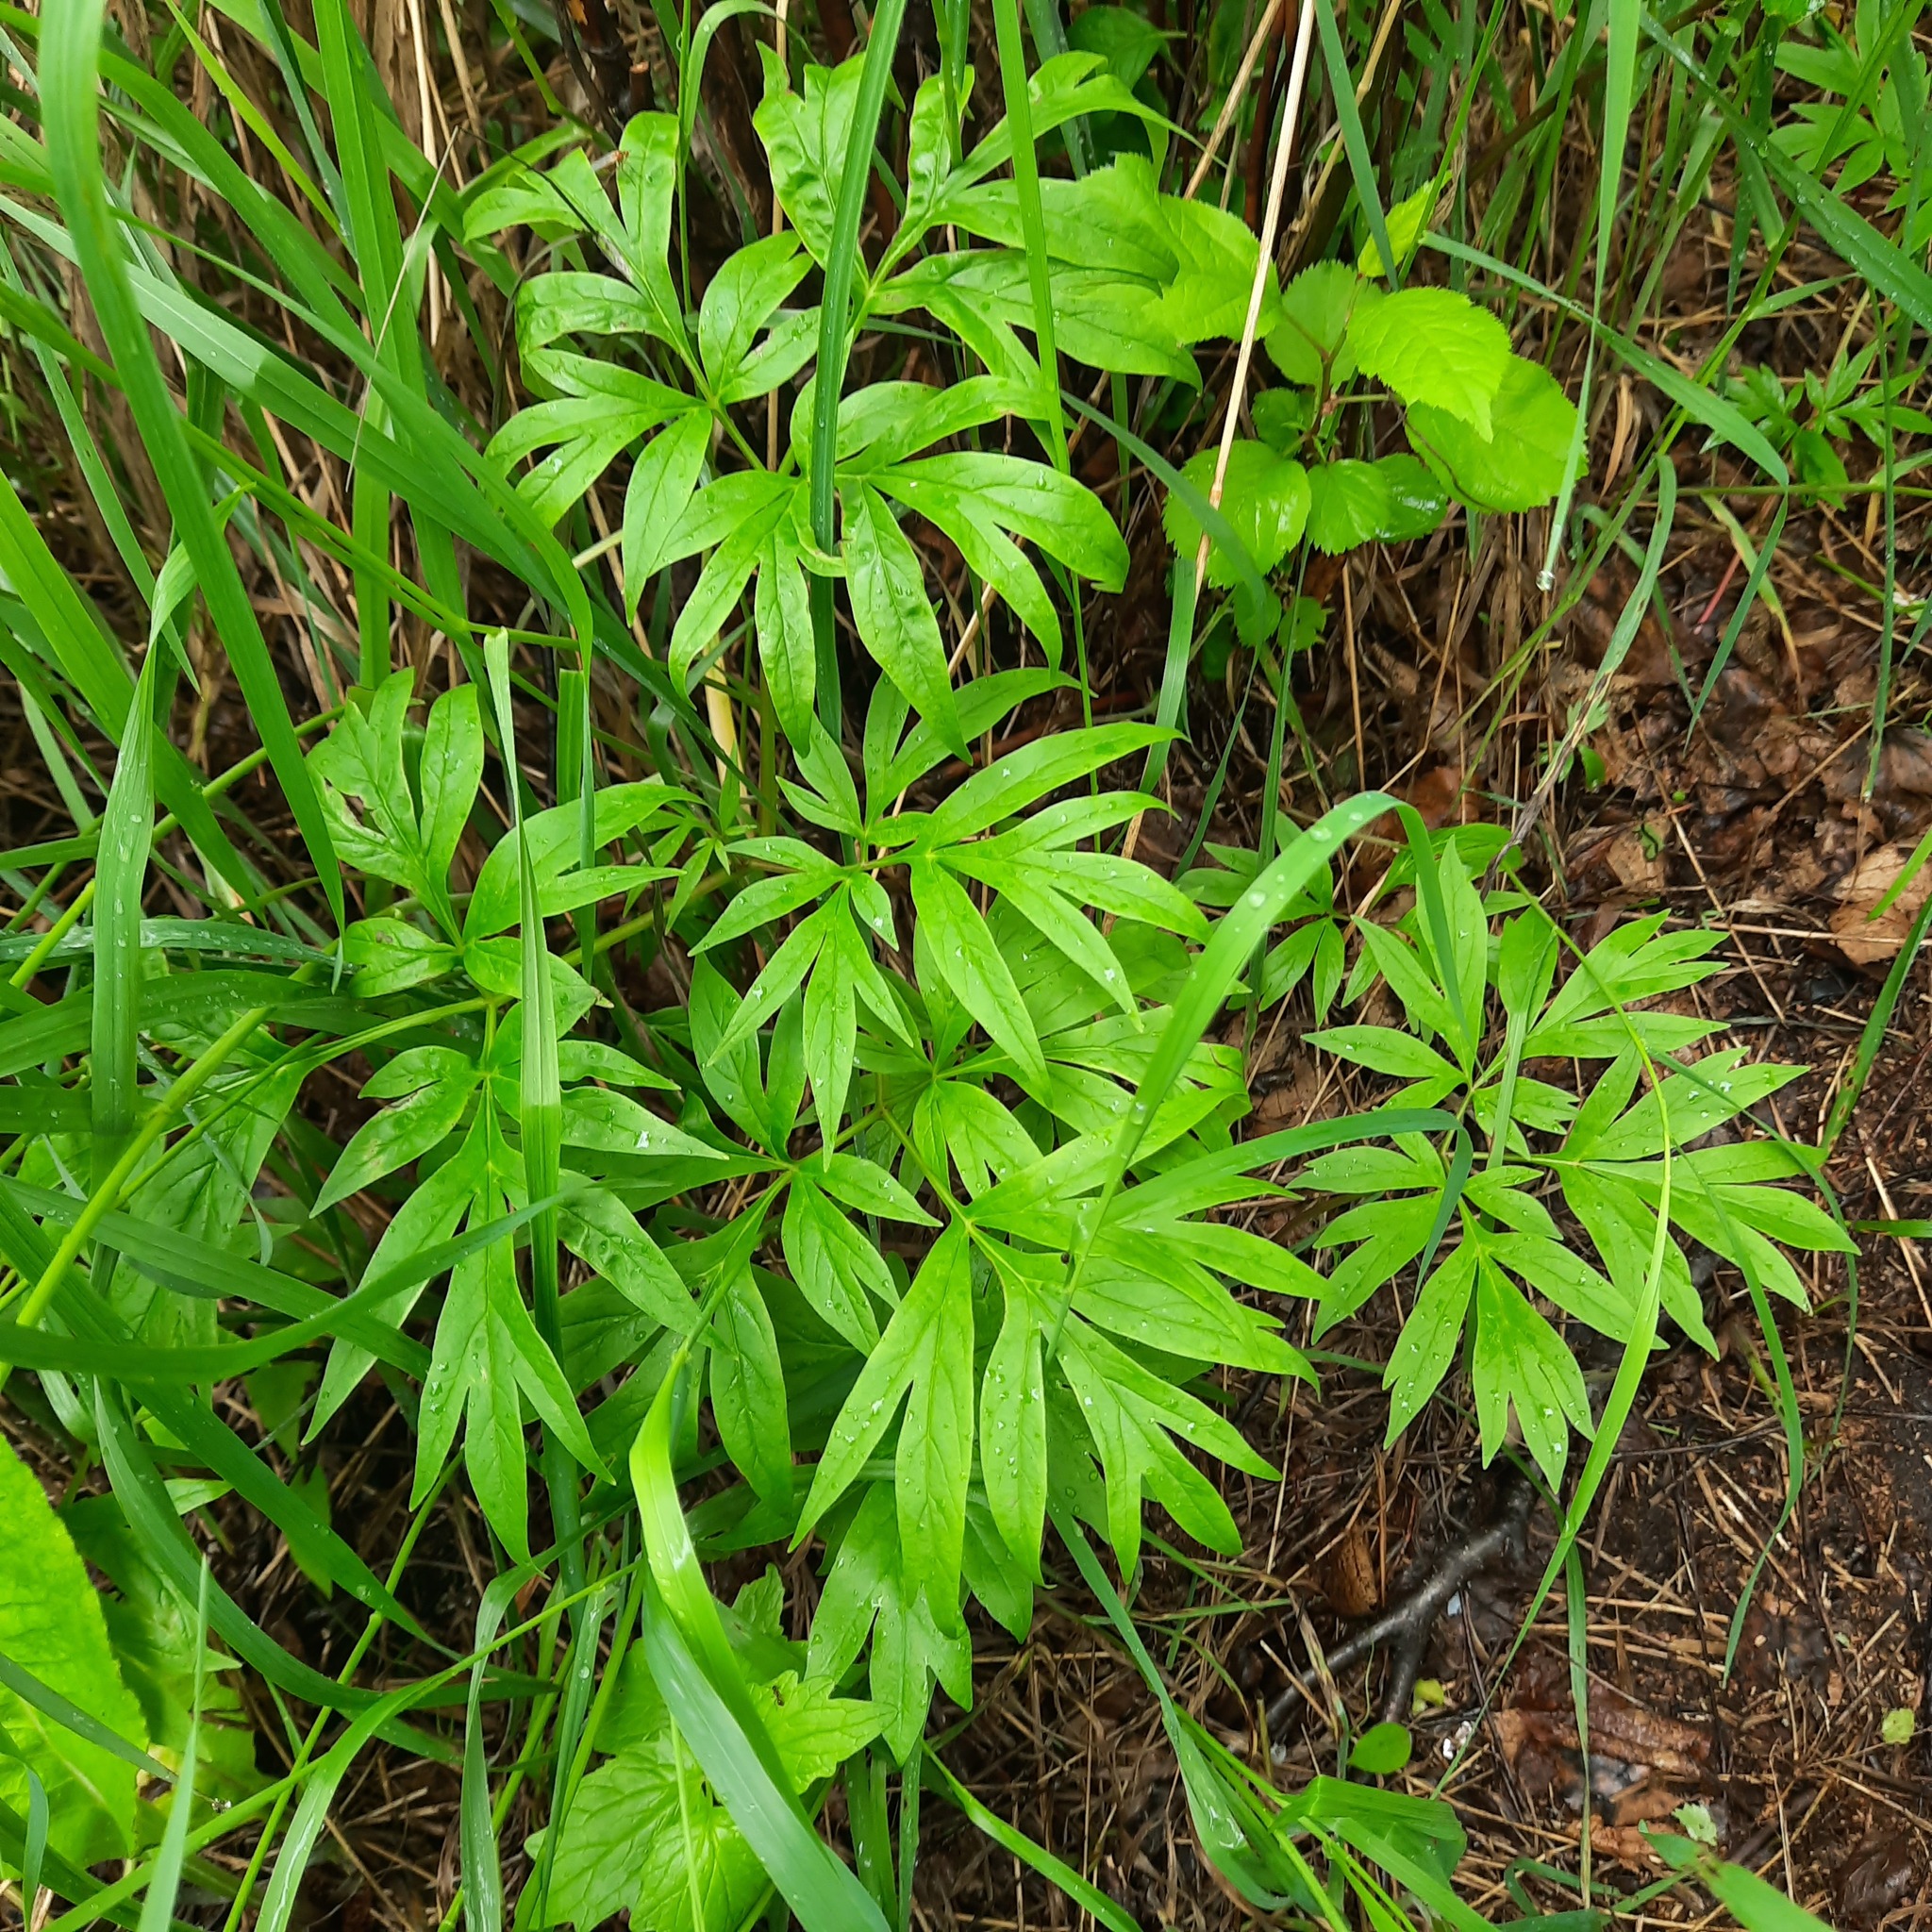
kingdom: Plantae
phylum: Tracheophyta
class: Magnoliopsida
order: Saxifragales
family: Paeoniaceae
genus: Paeonia
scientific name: Paeonia anomala
